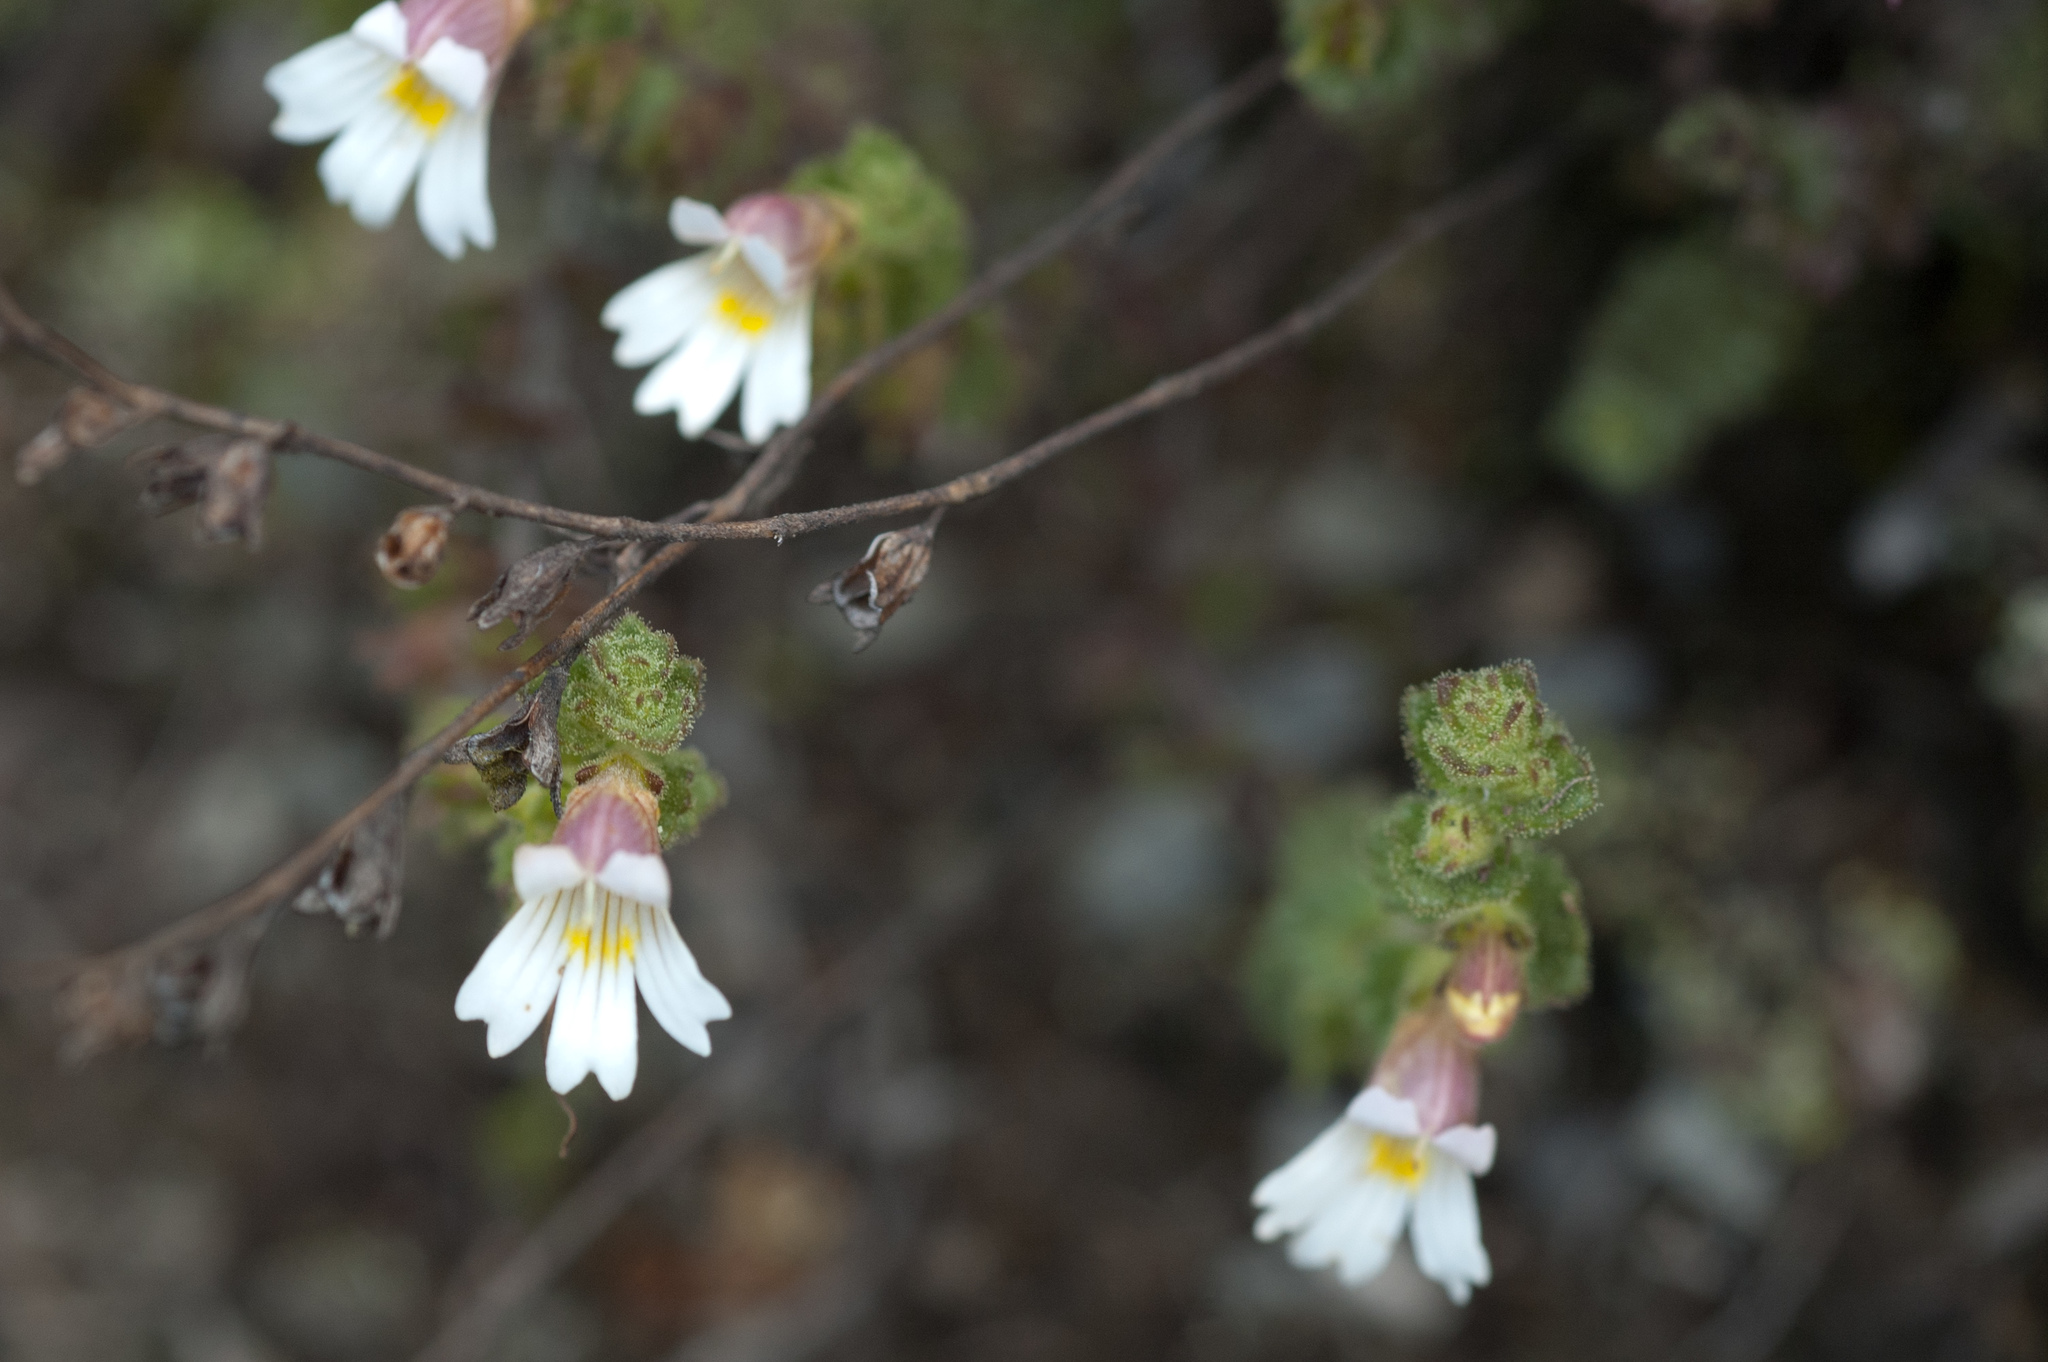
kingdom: Plantae
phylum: Tracheophyta
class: Magnoliopsida
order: Lamiales
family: Orobanchaceae
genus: Euphrasia
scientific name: Euphrasia transmorrisonensis
